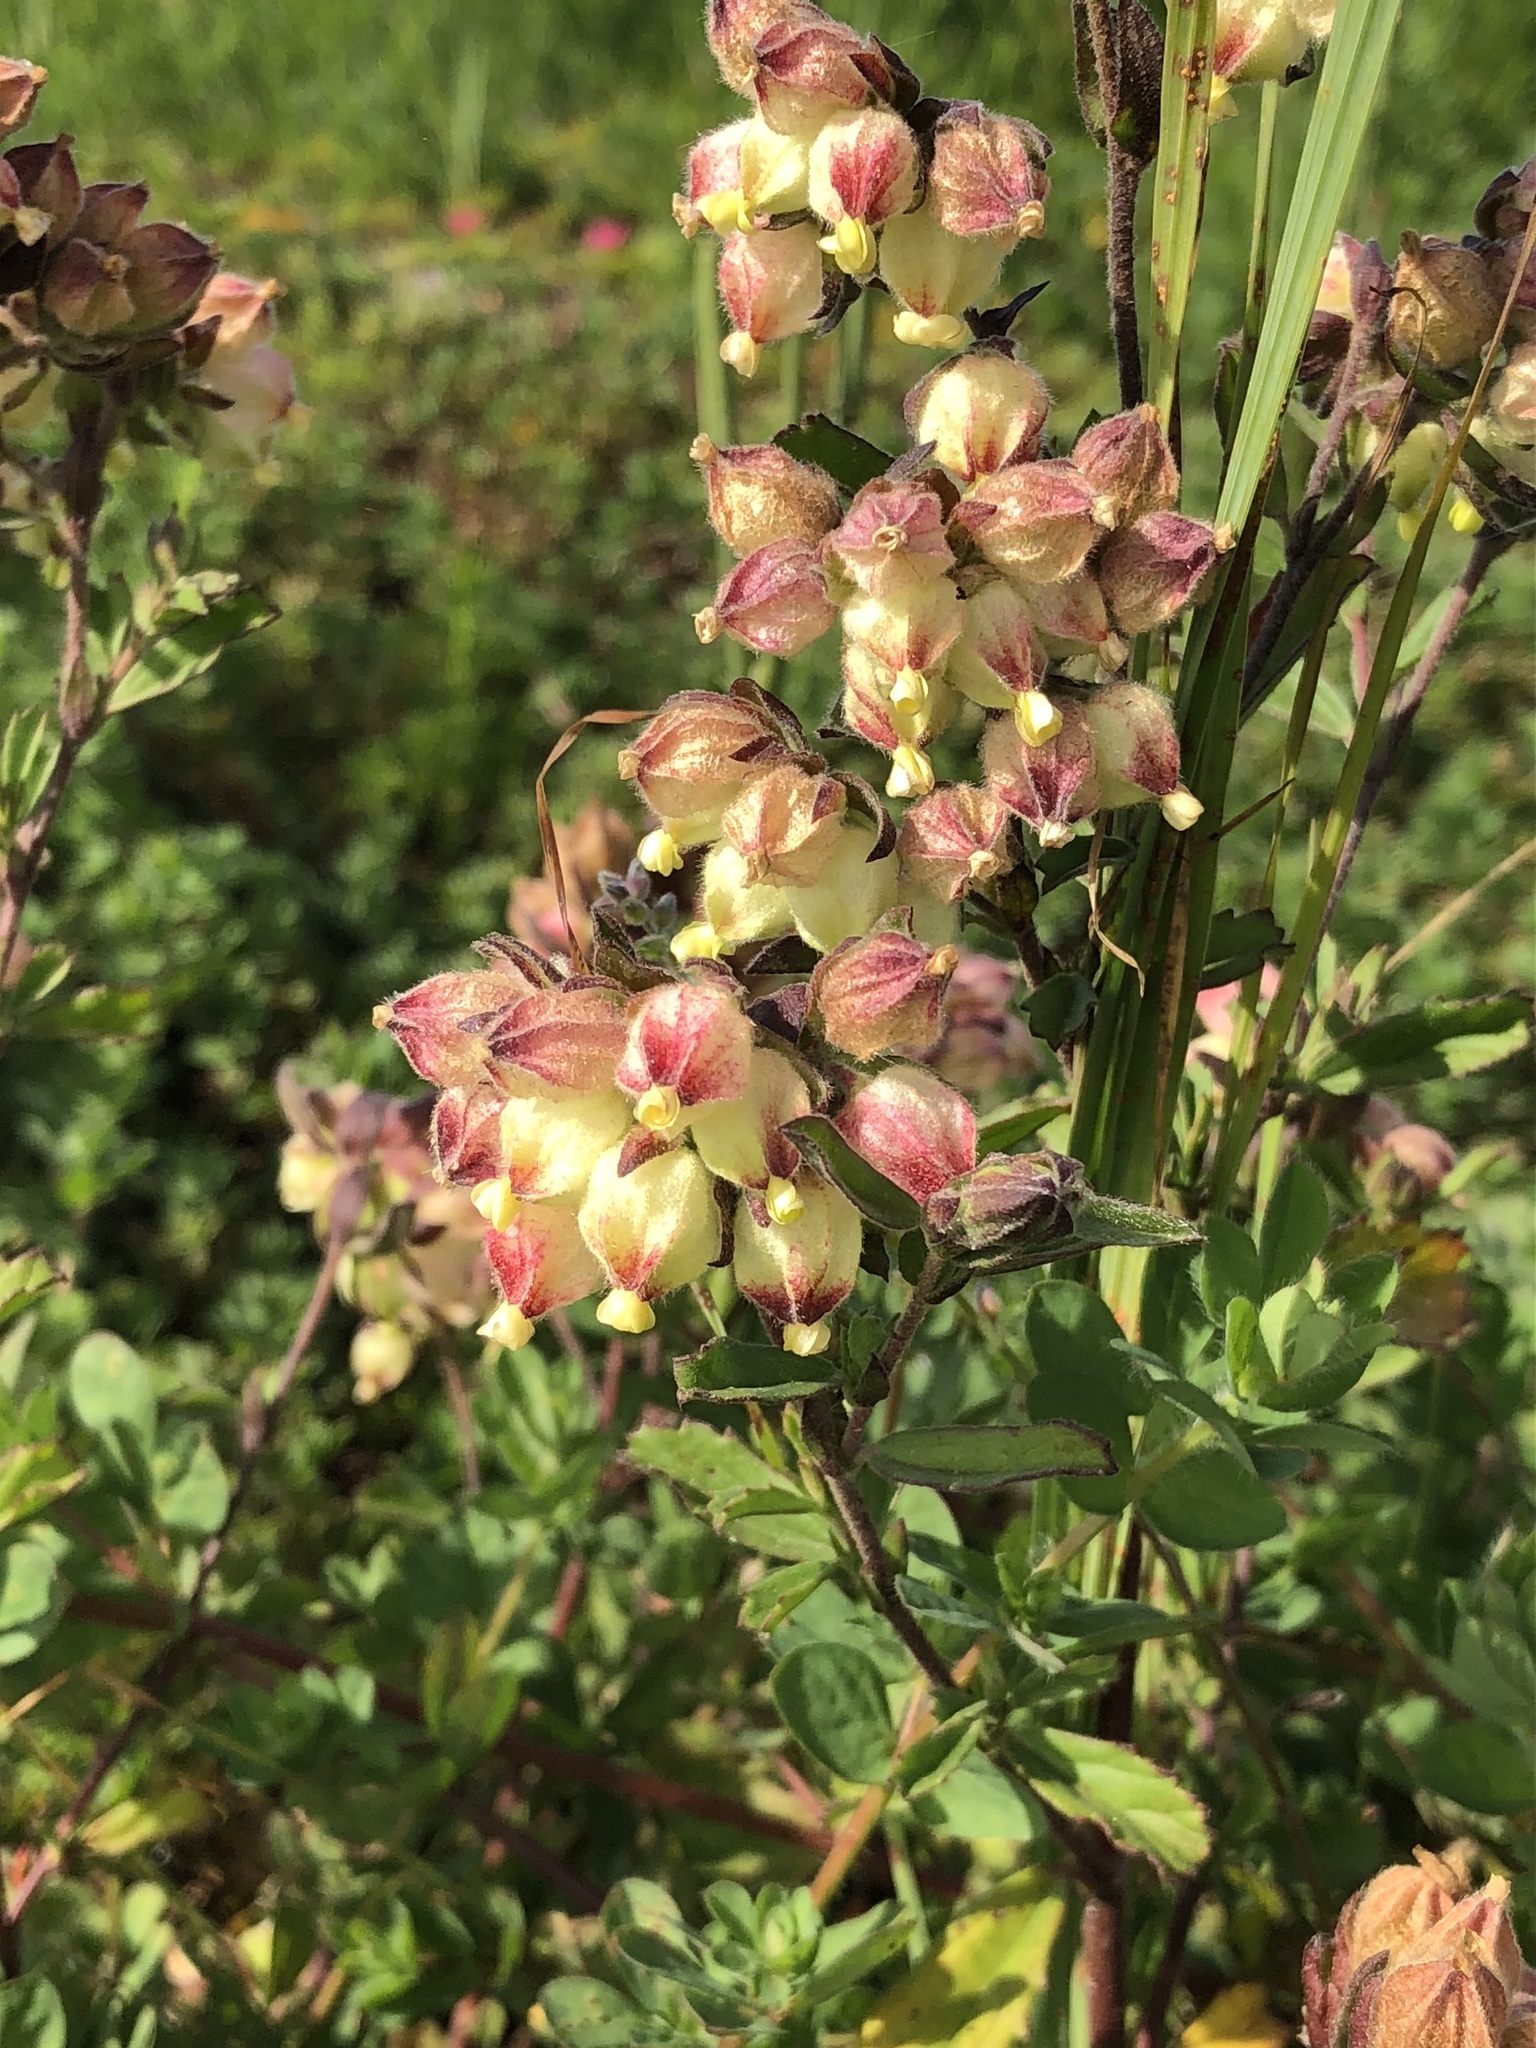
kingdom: Plantae
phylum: Tracheophyta
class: Magnoliopsida
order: Malvales
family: Malvaceae
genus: Hermannia
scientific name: Hermannia hyssopifolia
